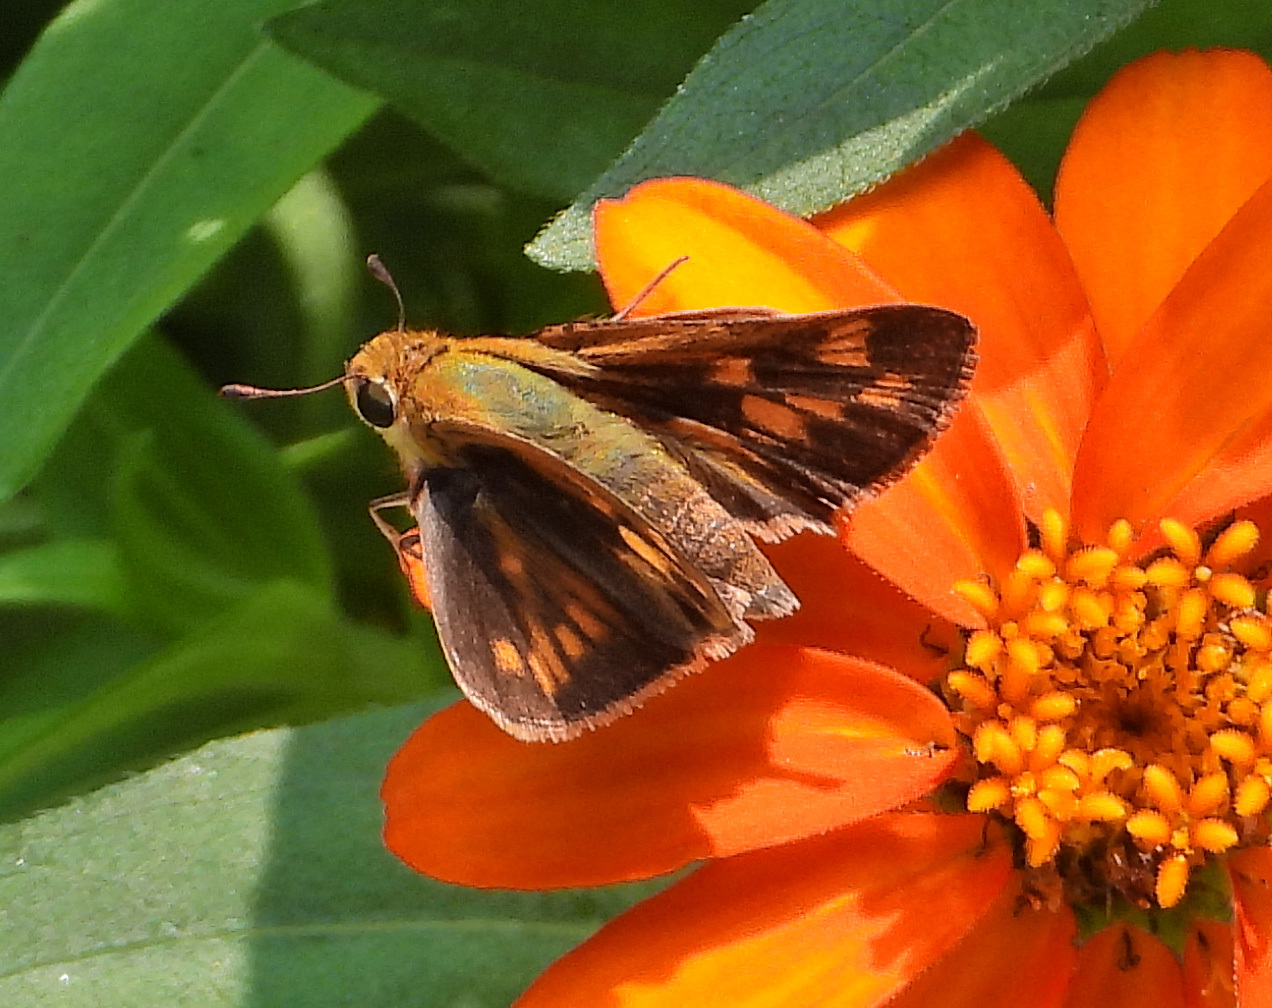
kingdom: Animalia
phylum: Arthropoda
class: Insecta
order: Lepidoptera
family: Hesperiidae
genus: Hylephila
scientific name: Hylephila phyleus
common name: Fiery skipper
